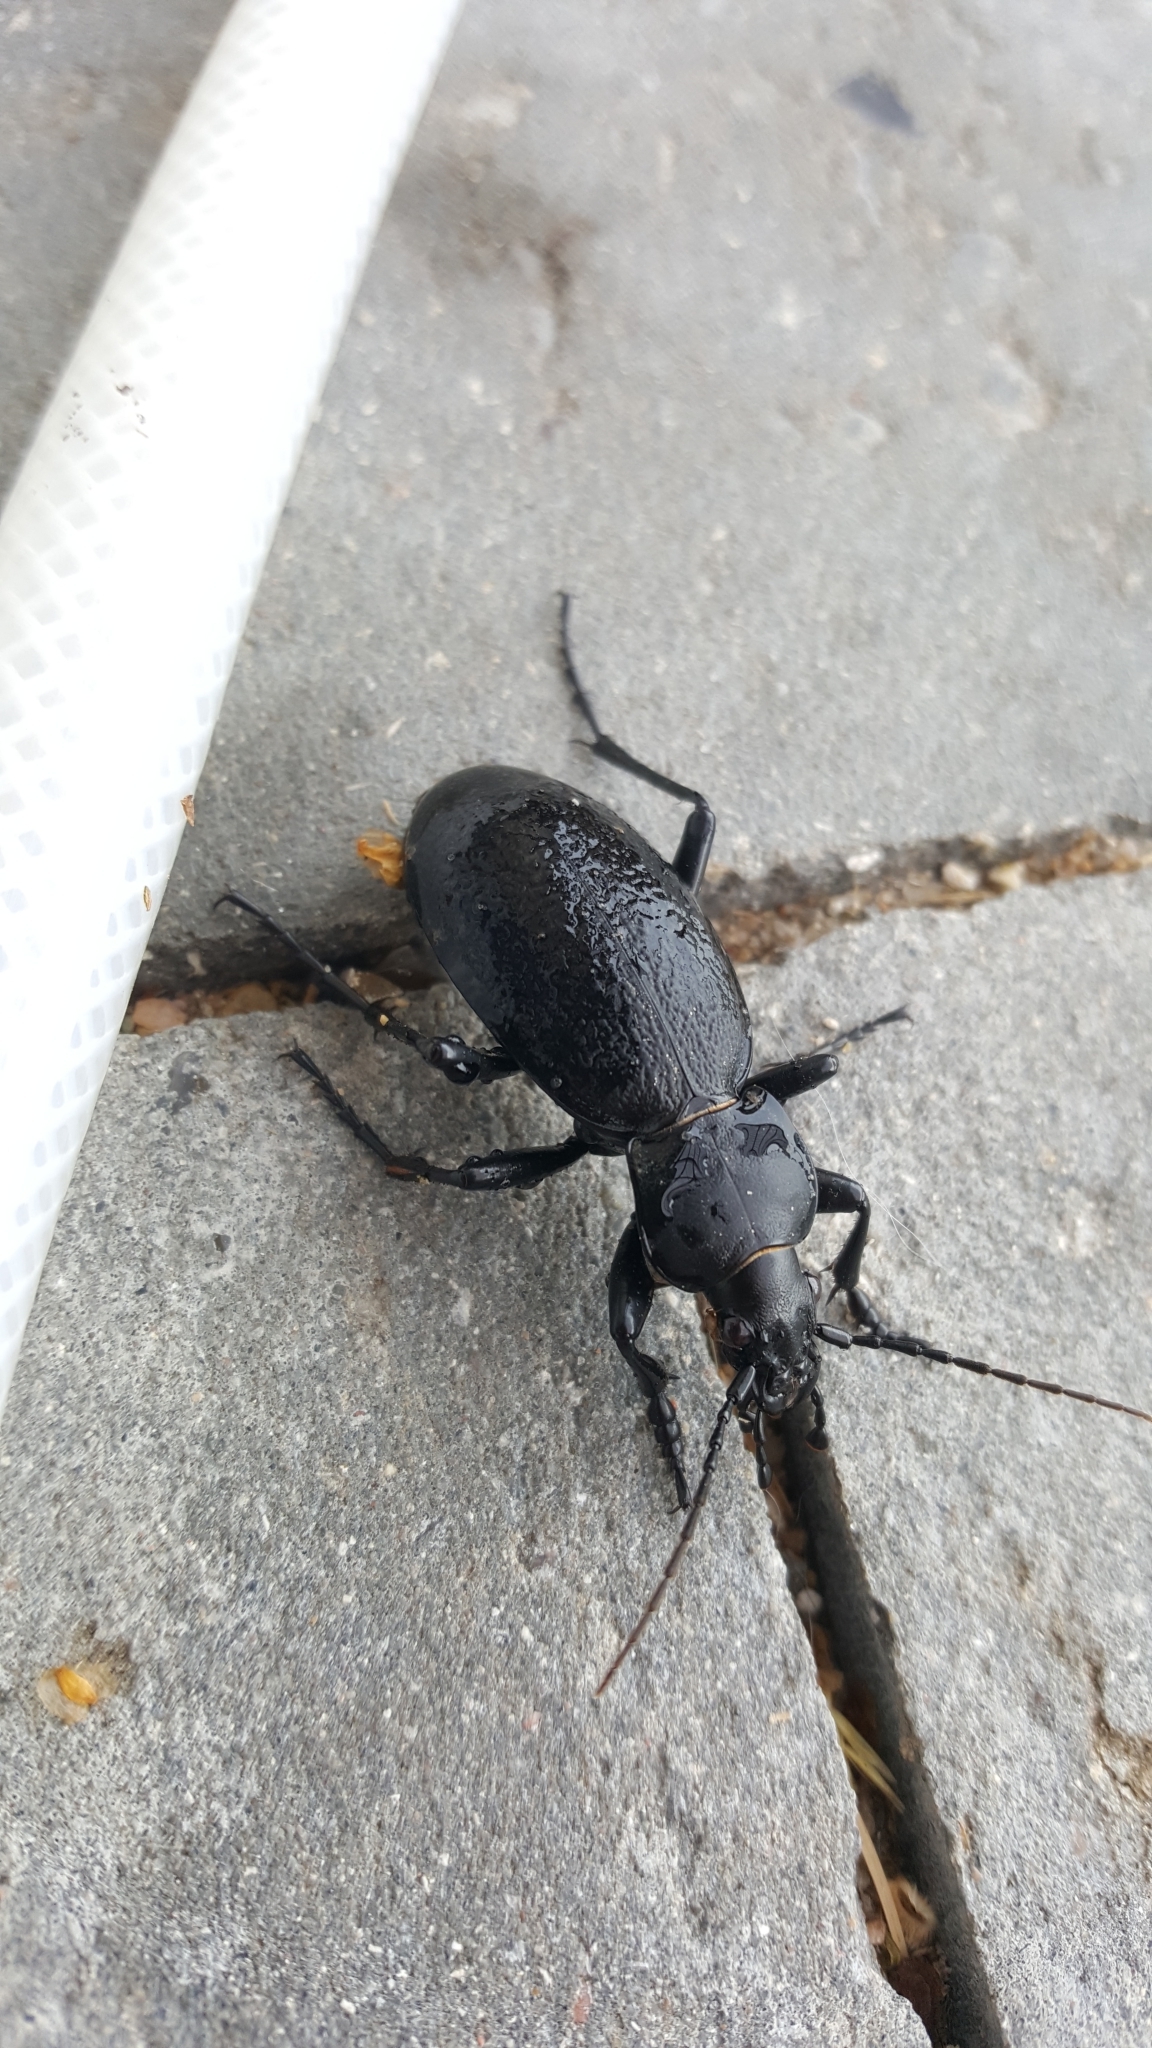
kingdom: Animalia
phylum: Arthropoda
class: Insecta
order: Coleoptera
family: Carabidae
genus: Carabus
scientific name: Carabus coriaceus
